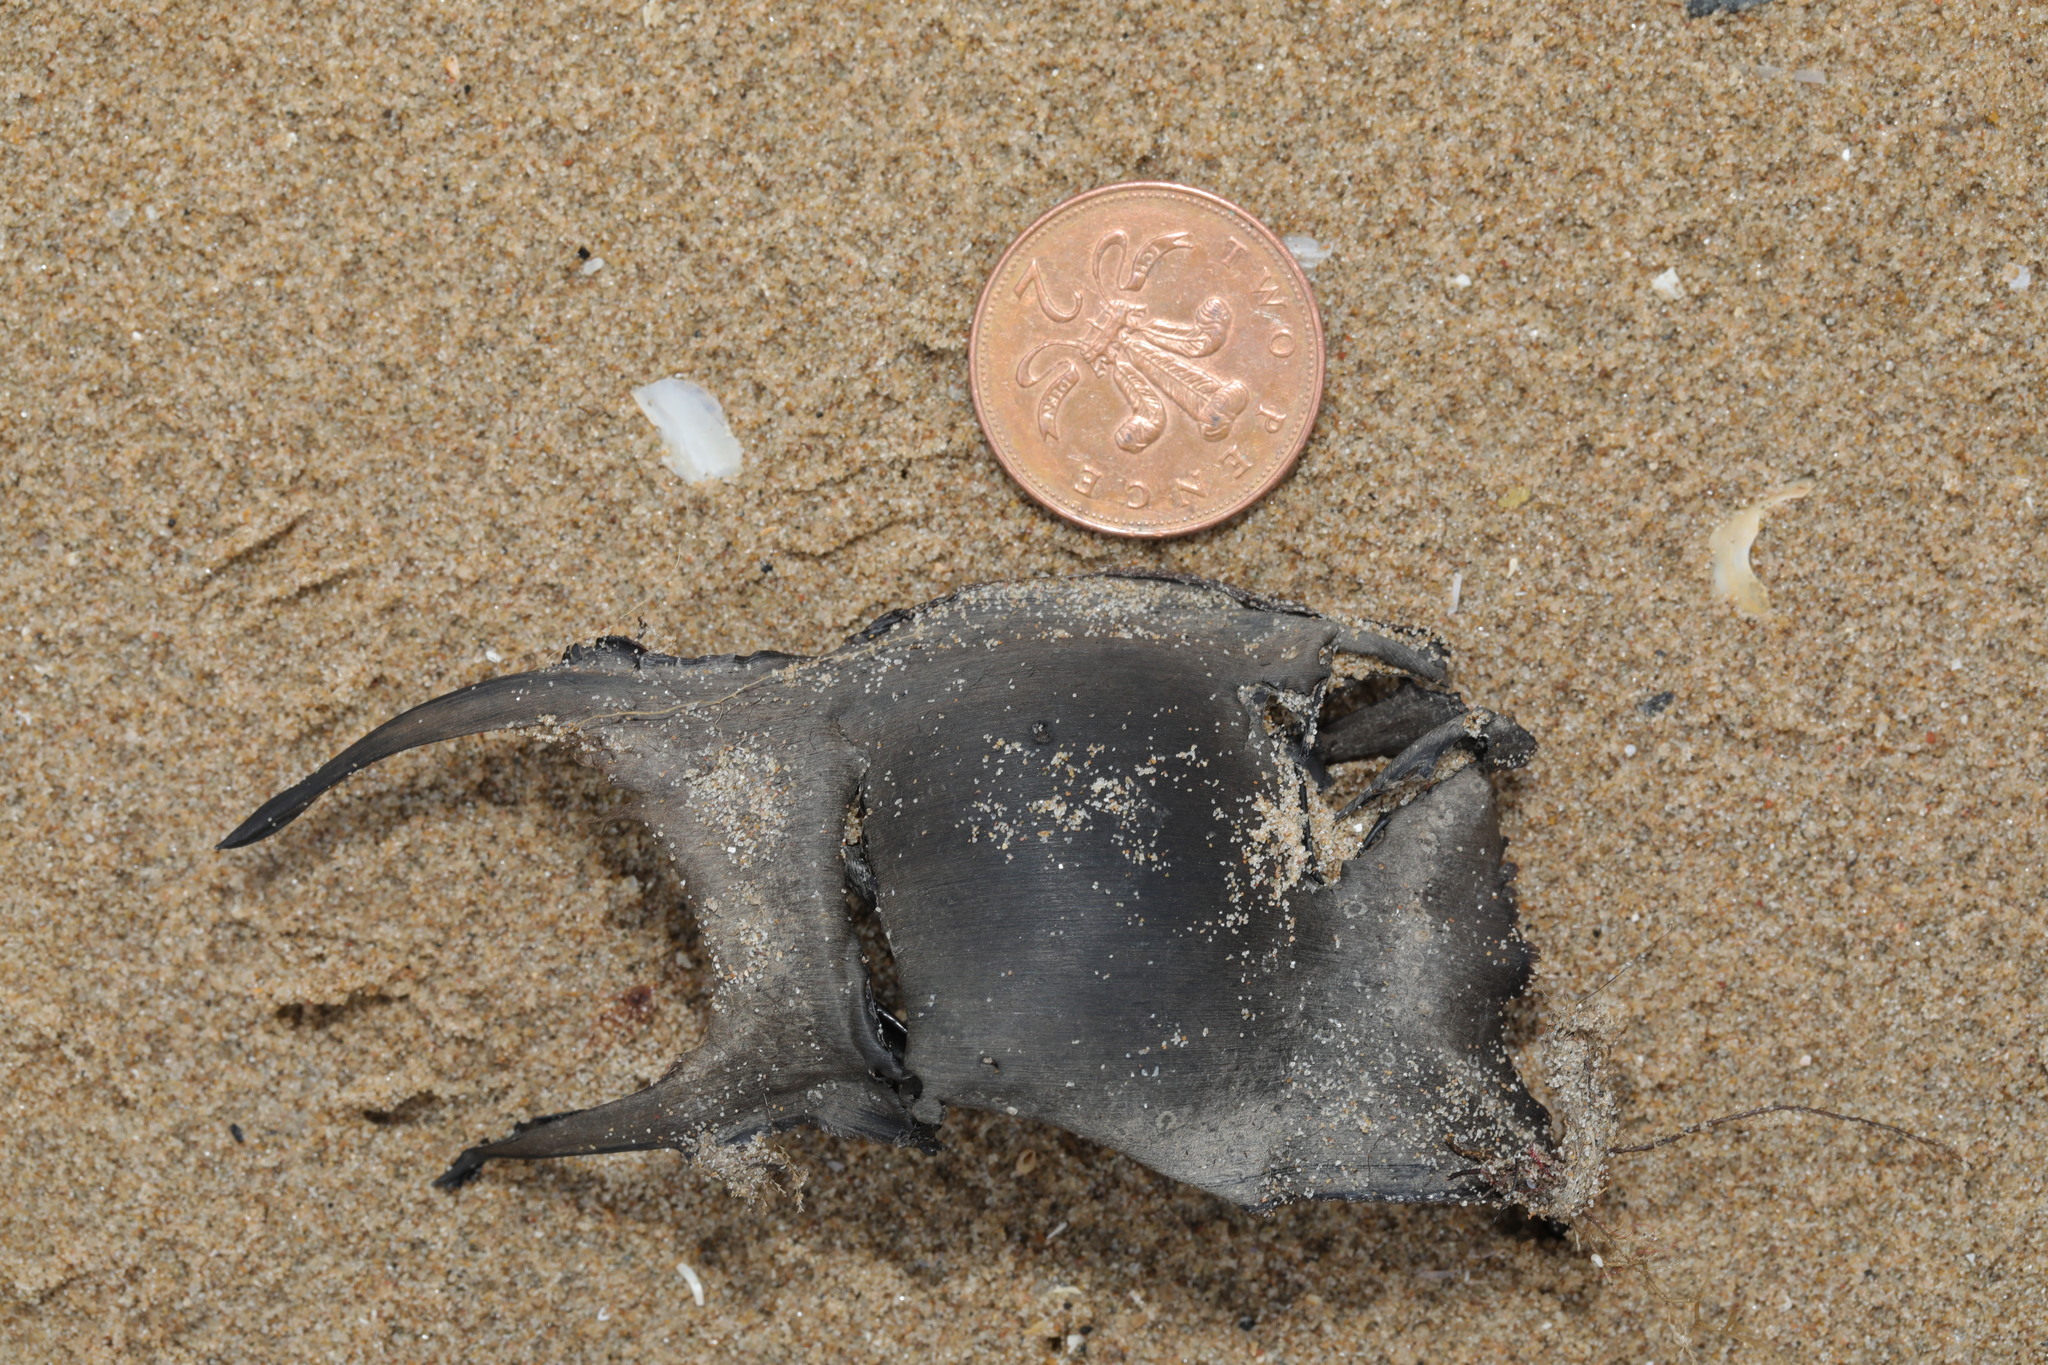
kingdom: Animalia
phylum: Chordata
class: Elasmobranchii
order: Rajiformes
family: Rajidae
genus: Raja
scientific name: Raja clavata
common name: Thornback ray
